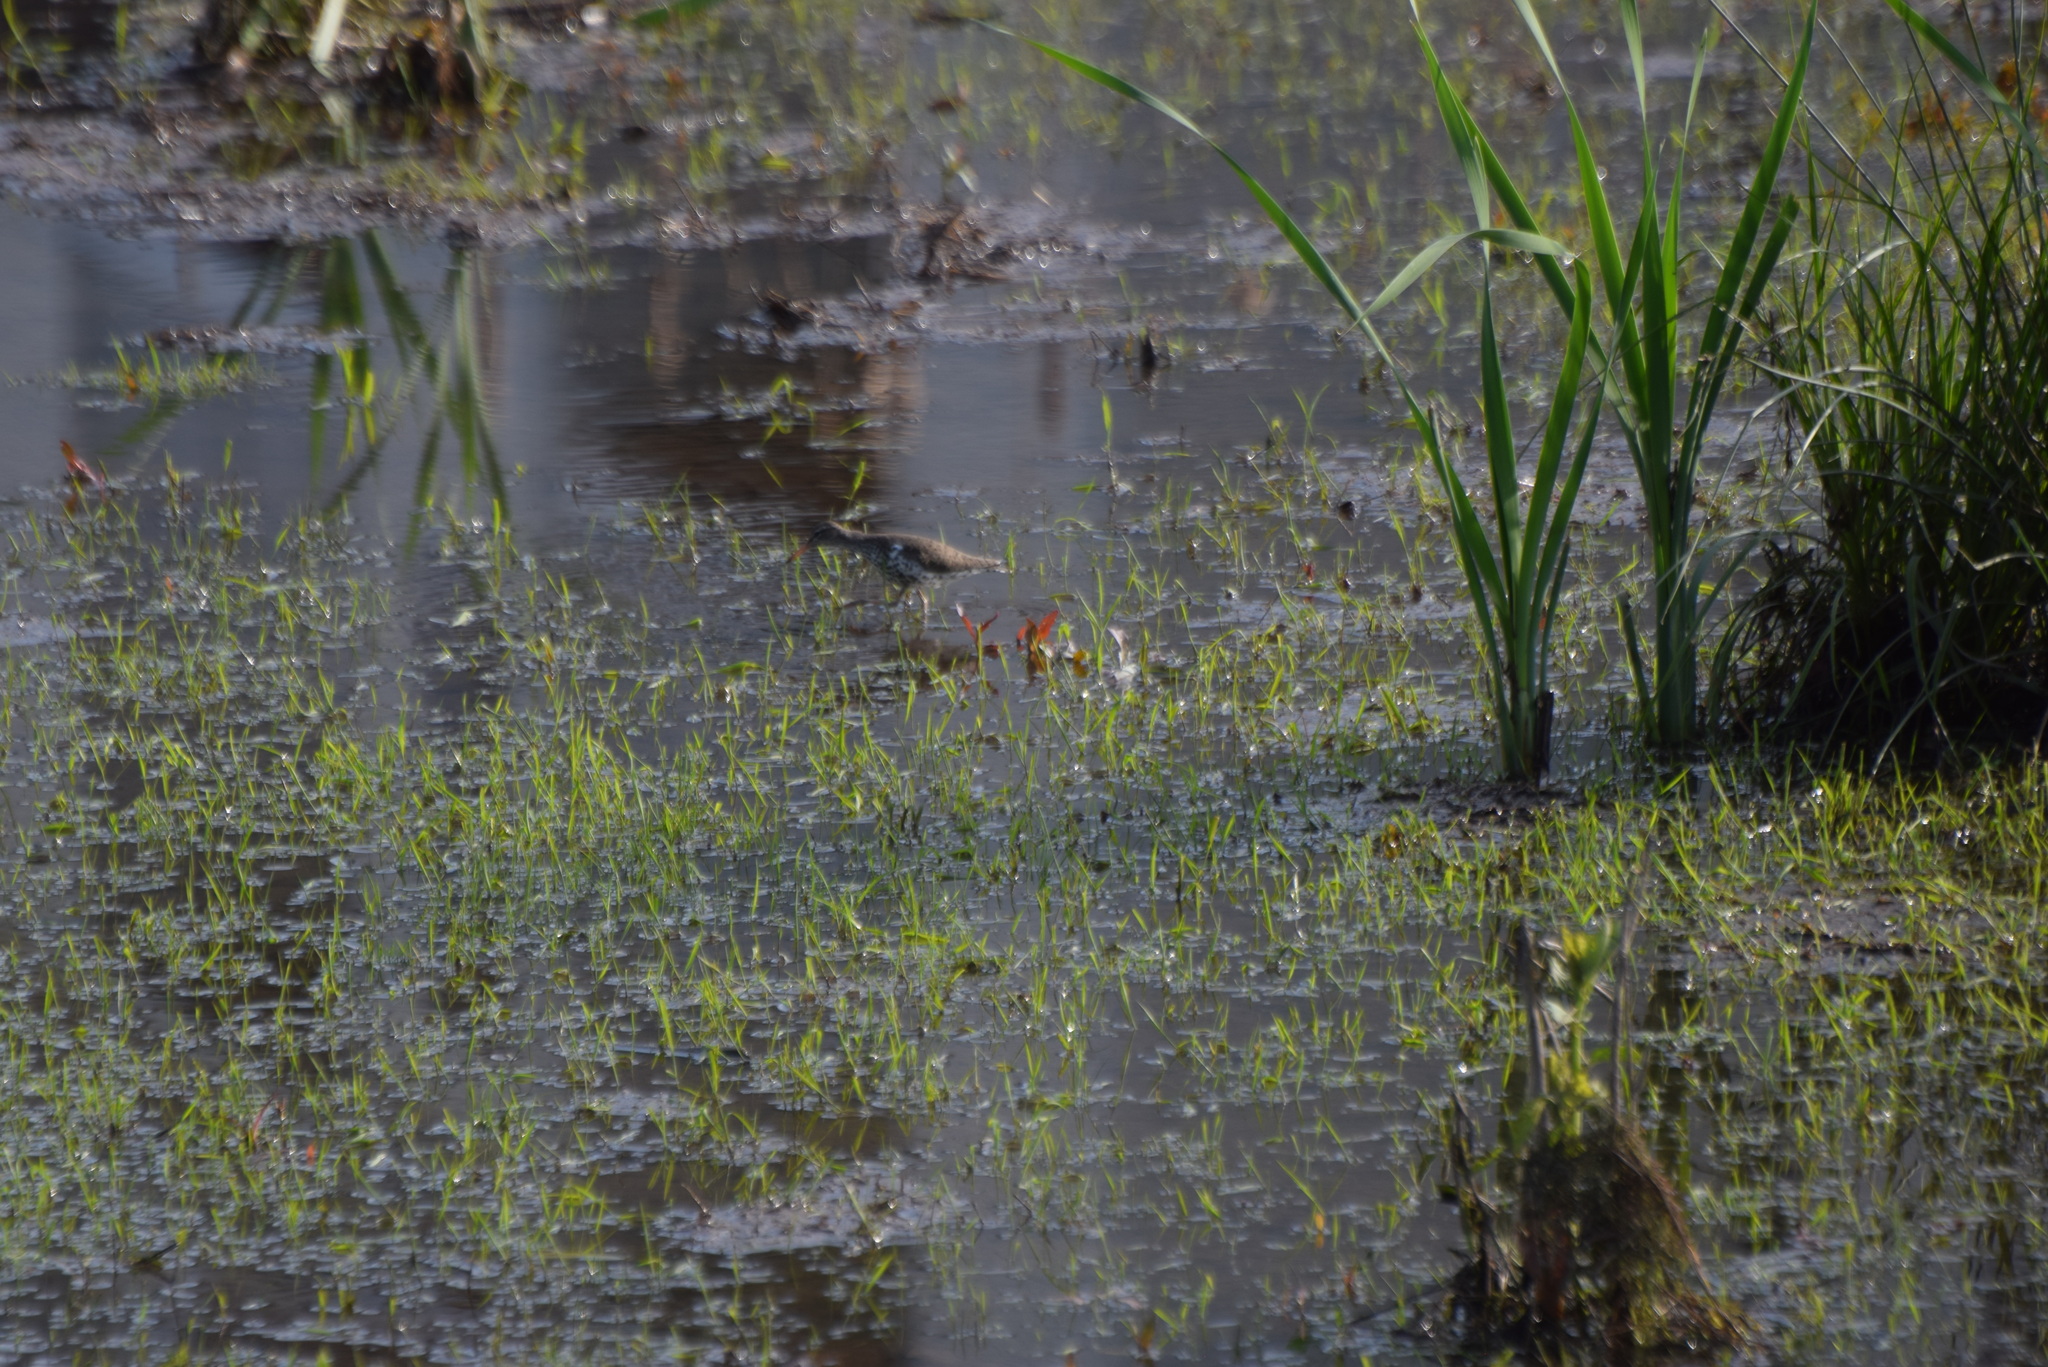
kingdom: Animalia
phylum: Chordata
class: Aves
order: Charadriiformes
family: Scolopacidae
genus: Actitis
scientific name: Actitis macularius
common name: Spotted sandpiper
